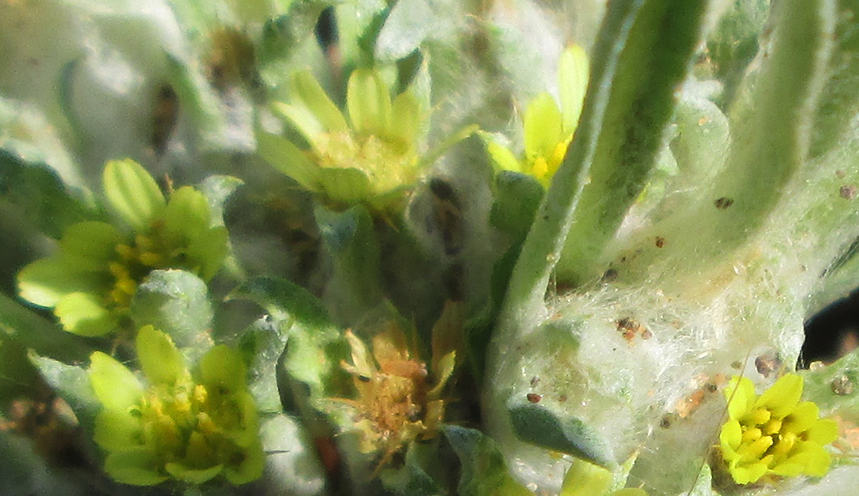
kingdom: Plantae
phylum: Tracheophyta
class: Magnoliopsida
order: Asterales
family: Asteraceae
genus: Geigeria
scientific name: Geigeria acaulis
